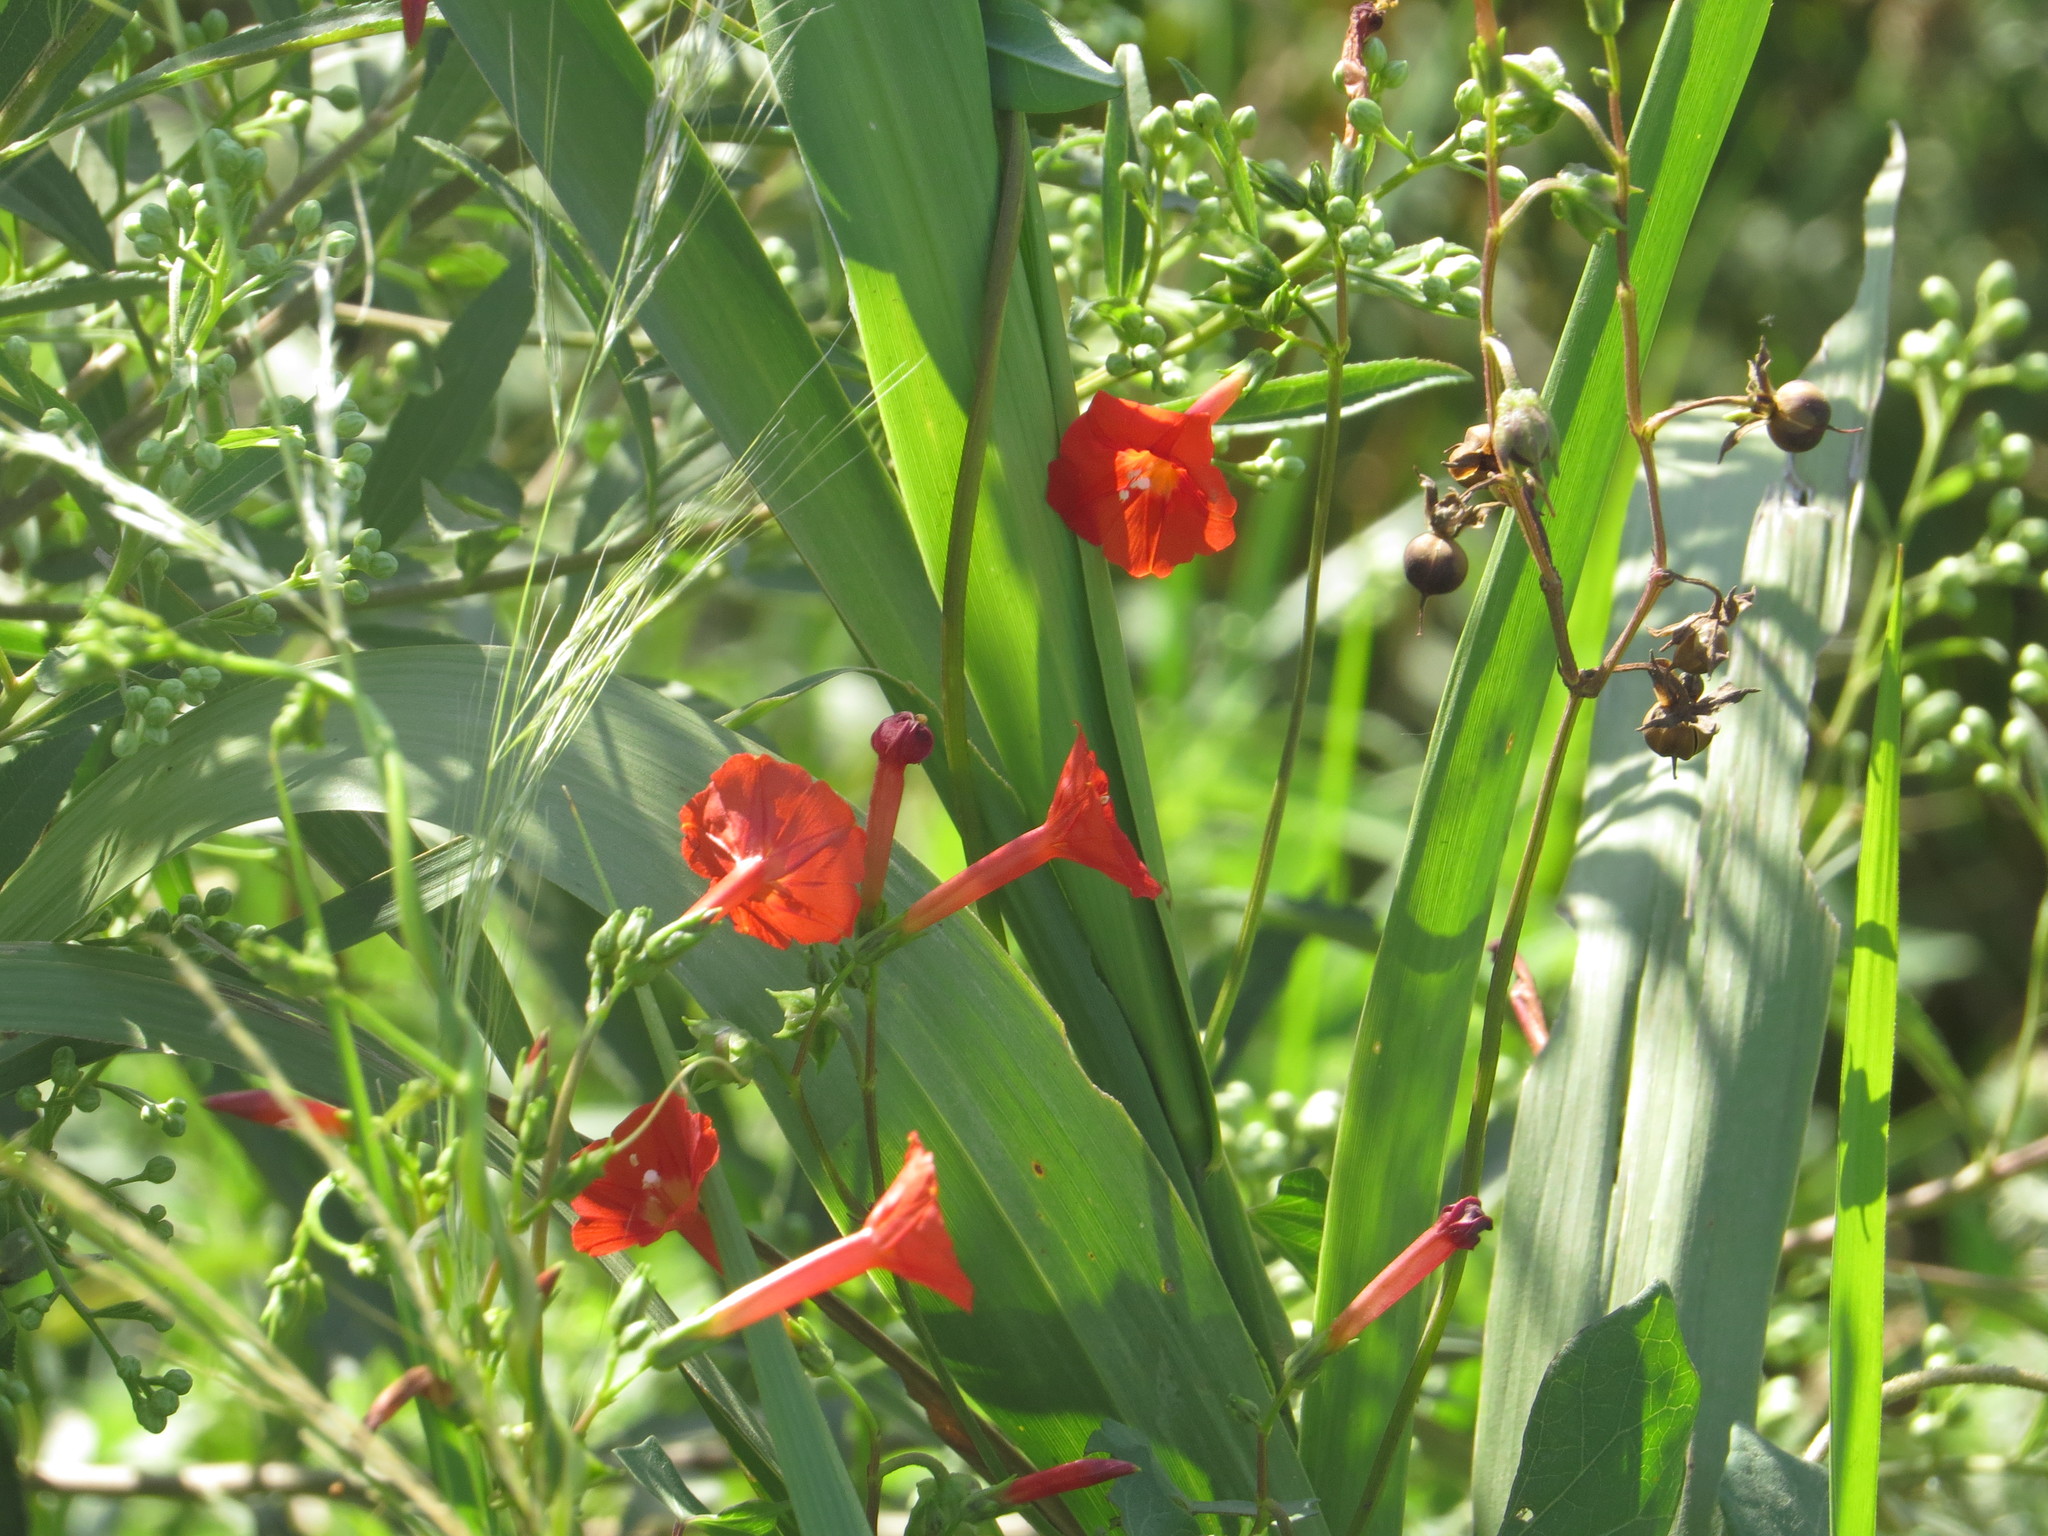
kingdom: Plantae
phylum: Tracheophyta
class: Magnoliopsida
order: Solanales
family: Convolvulaceae
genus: Ipomoea
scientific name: Ipomoea indivisa
